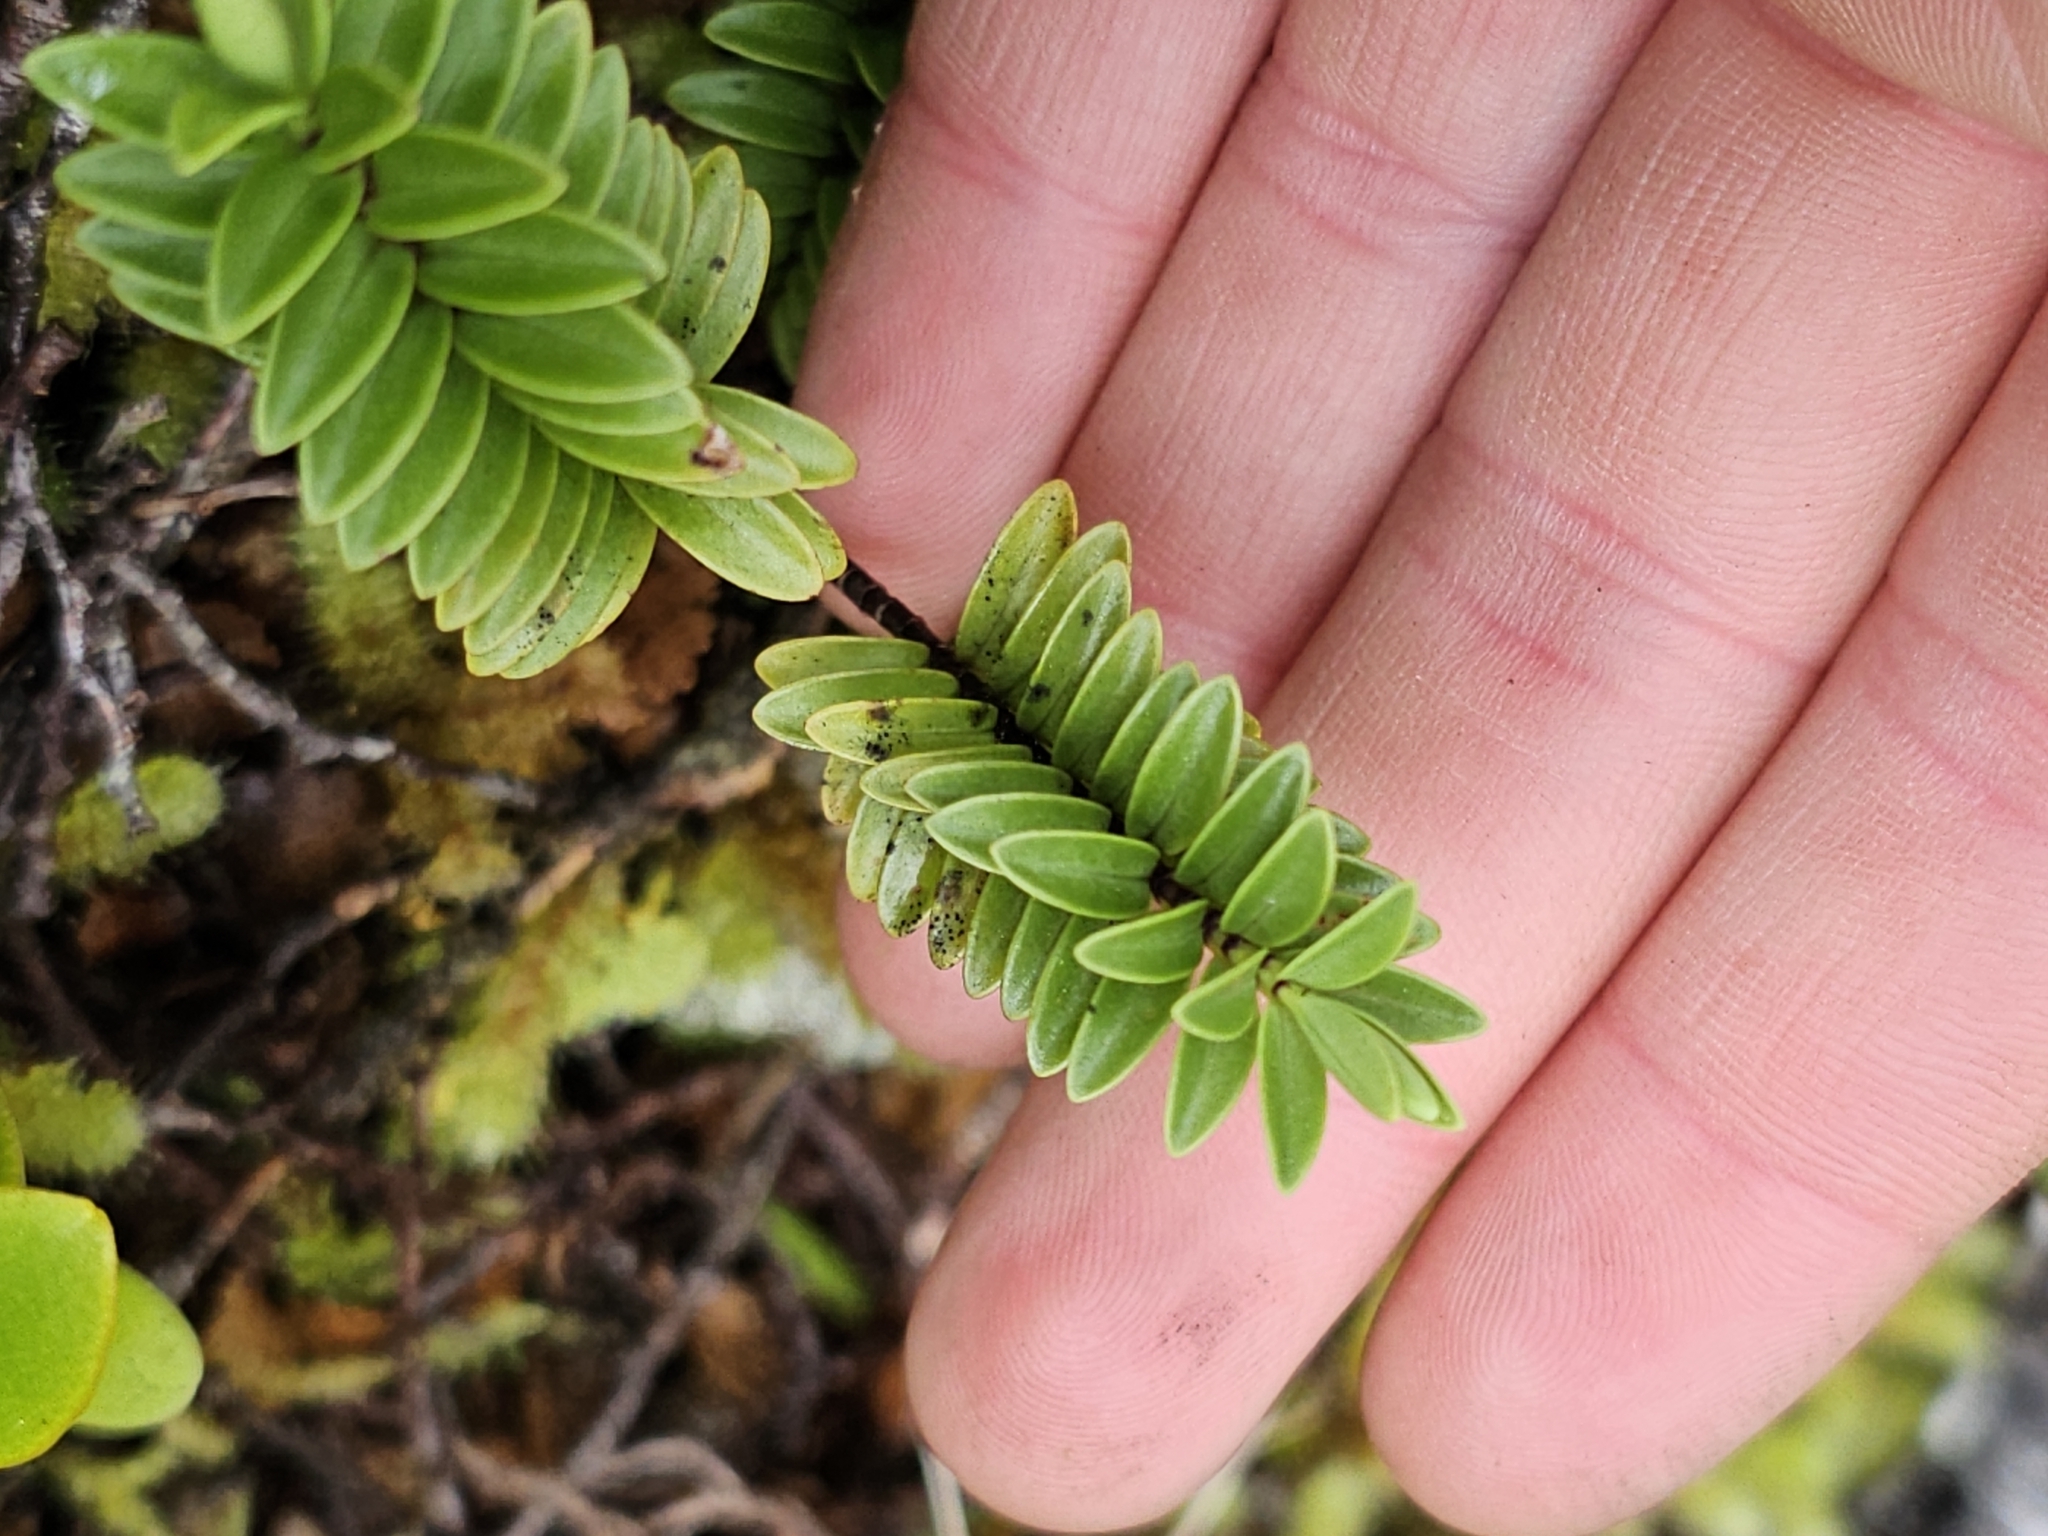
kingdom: Plantae
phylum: Tracheophyta
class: Magnoliopsida
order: Lamiales
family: Plantaginaceae
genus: Veronica
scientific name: Veronica vernicosa
